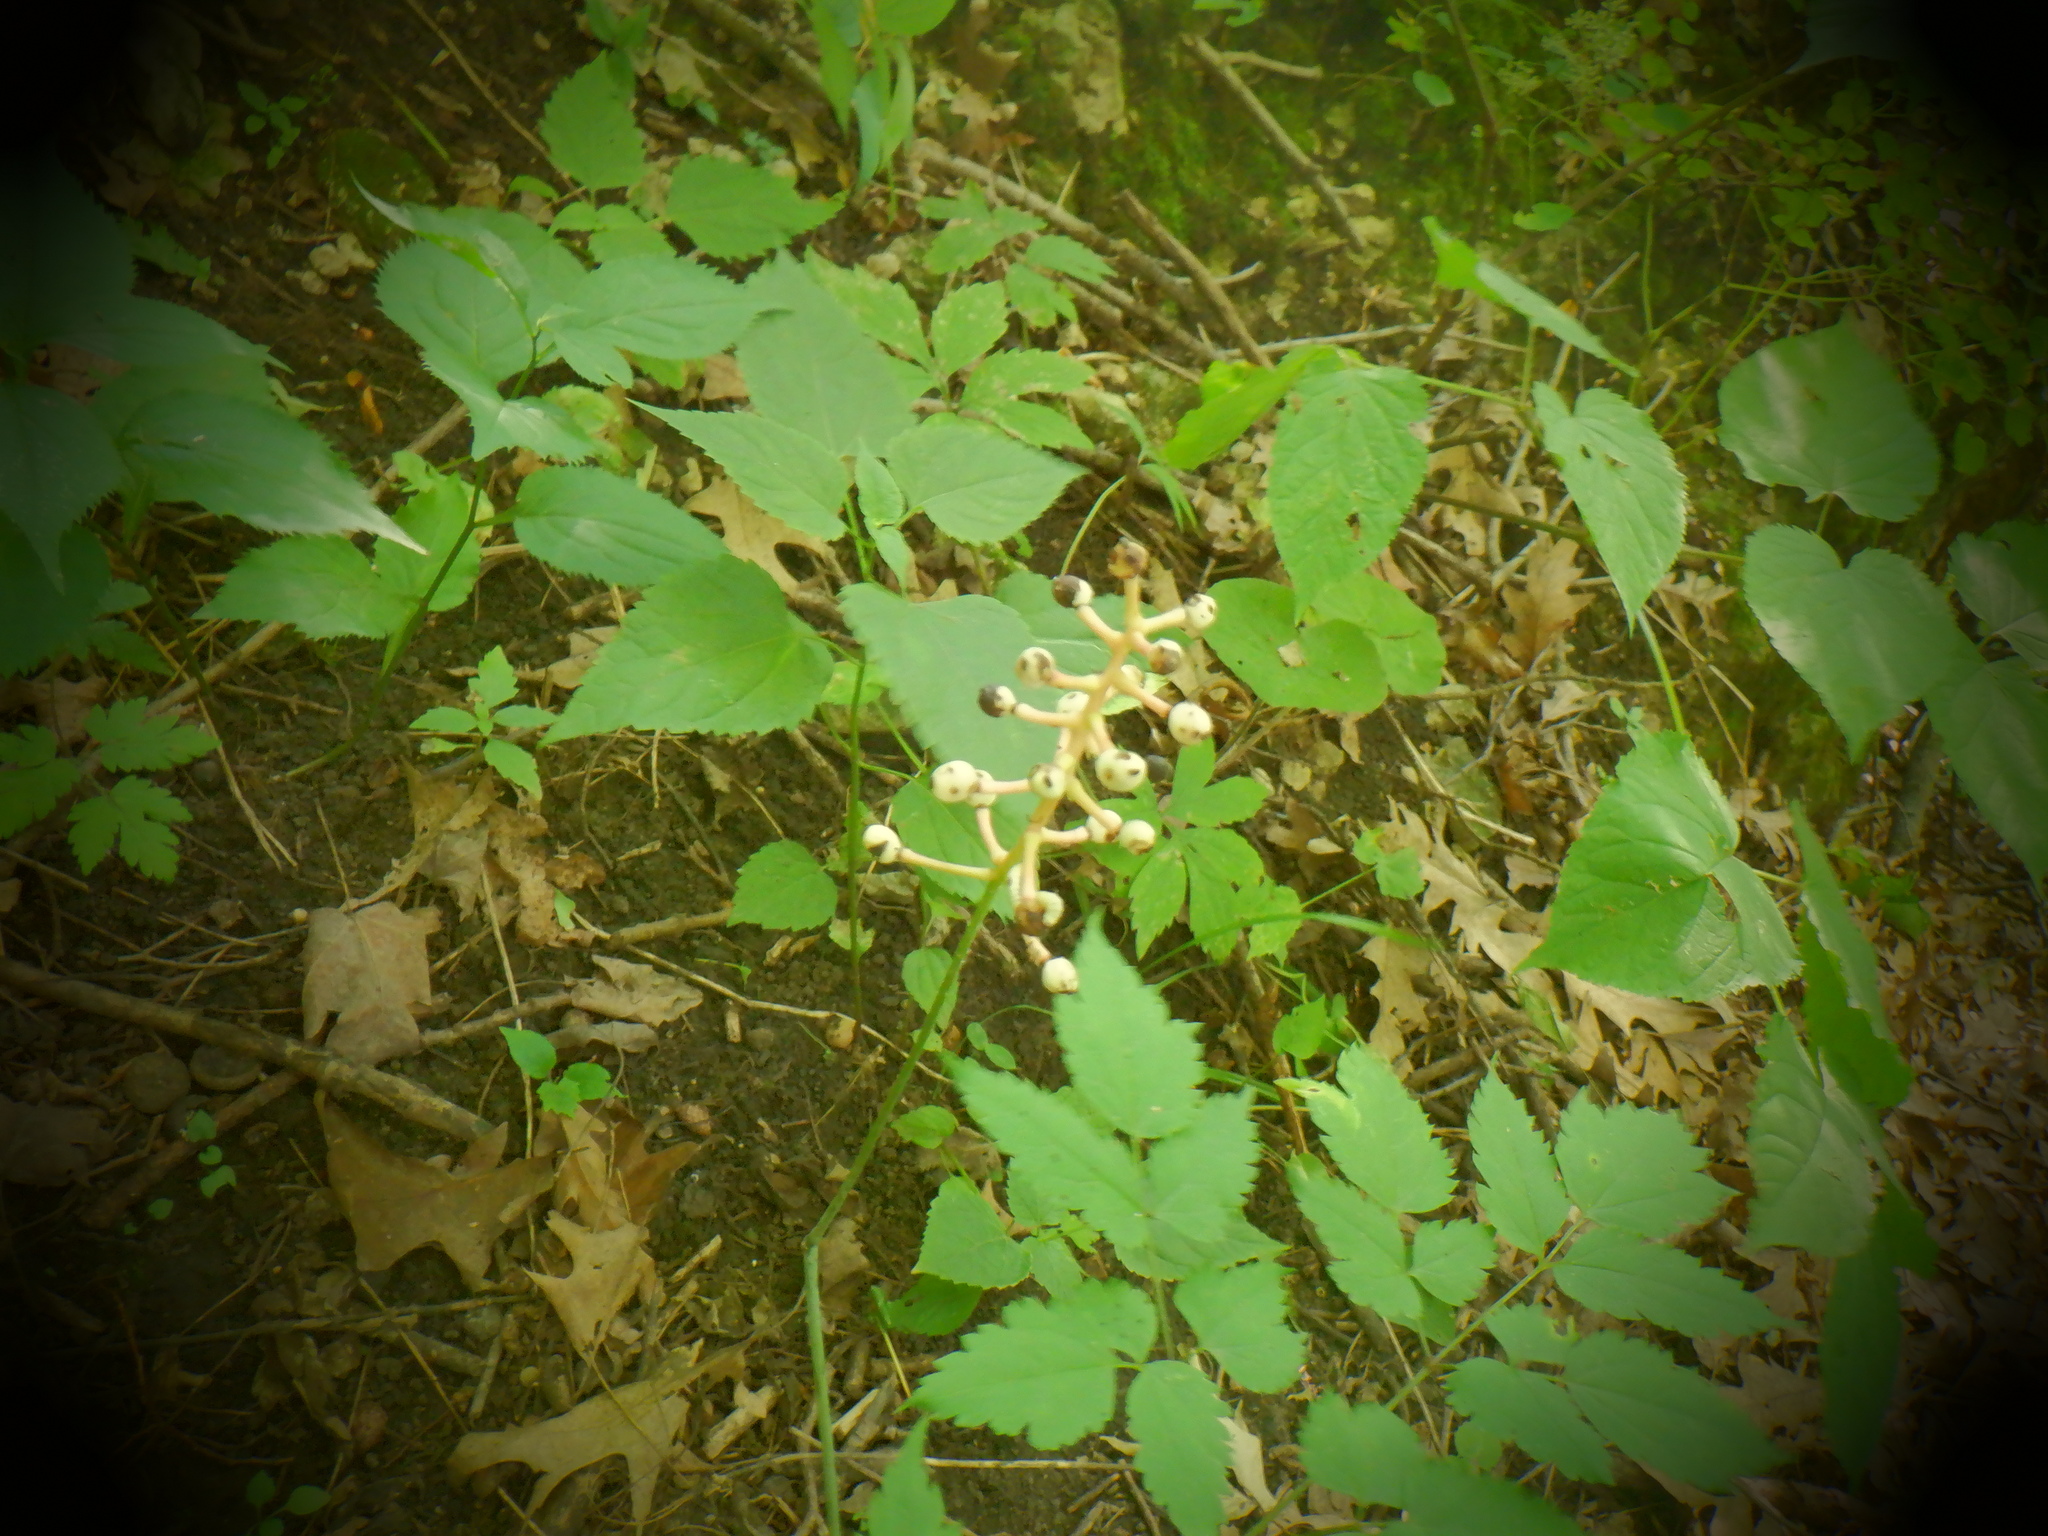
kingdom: Plantae
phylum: Tracheophyta
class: Magnoliopsida
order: Ranunculales
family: Ranunculaceae
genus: Actaea
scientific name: Actaea pachypoda
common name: Doll's-eyes
